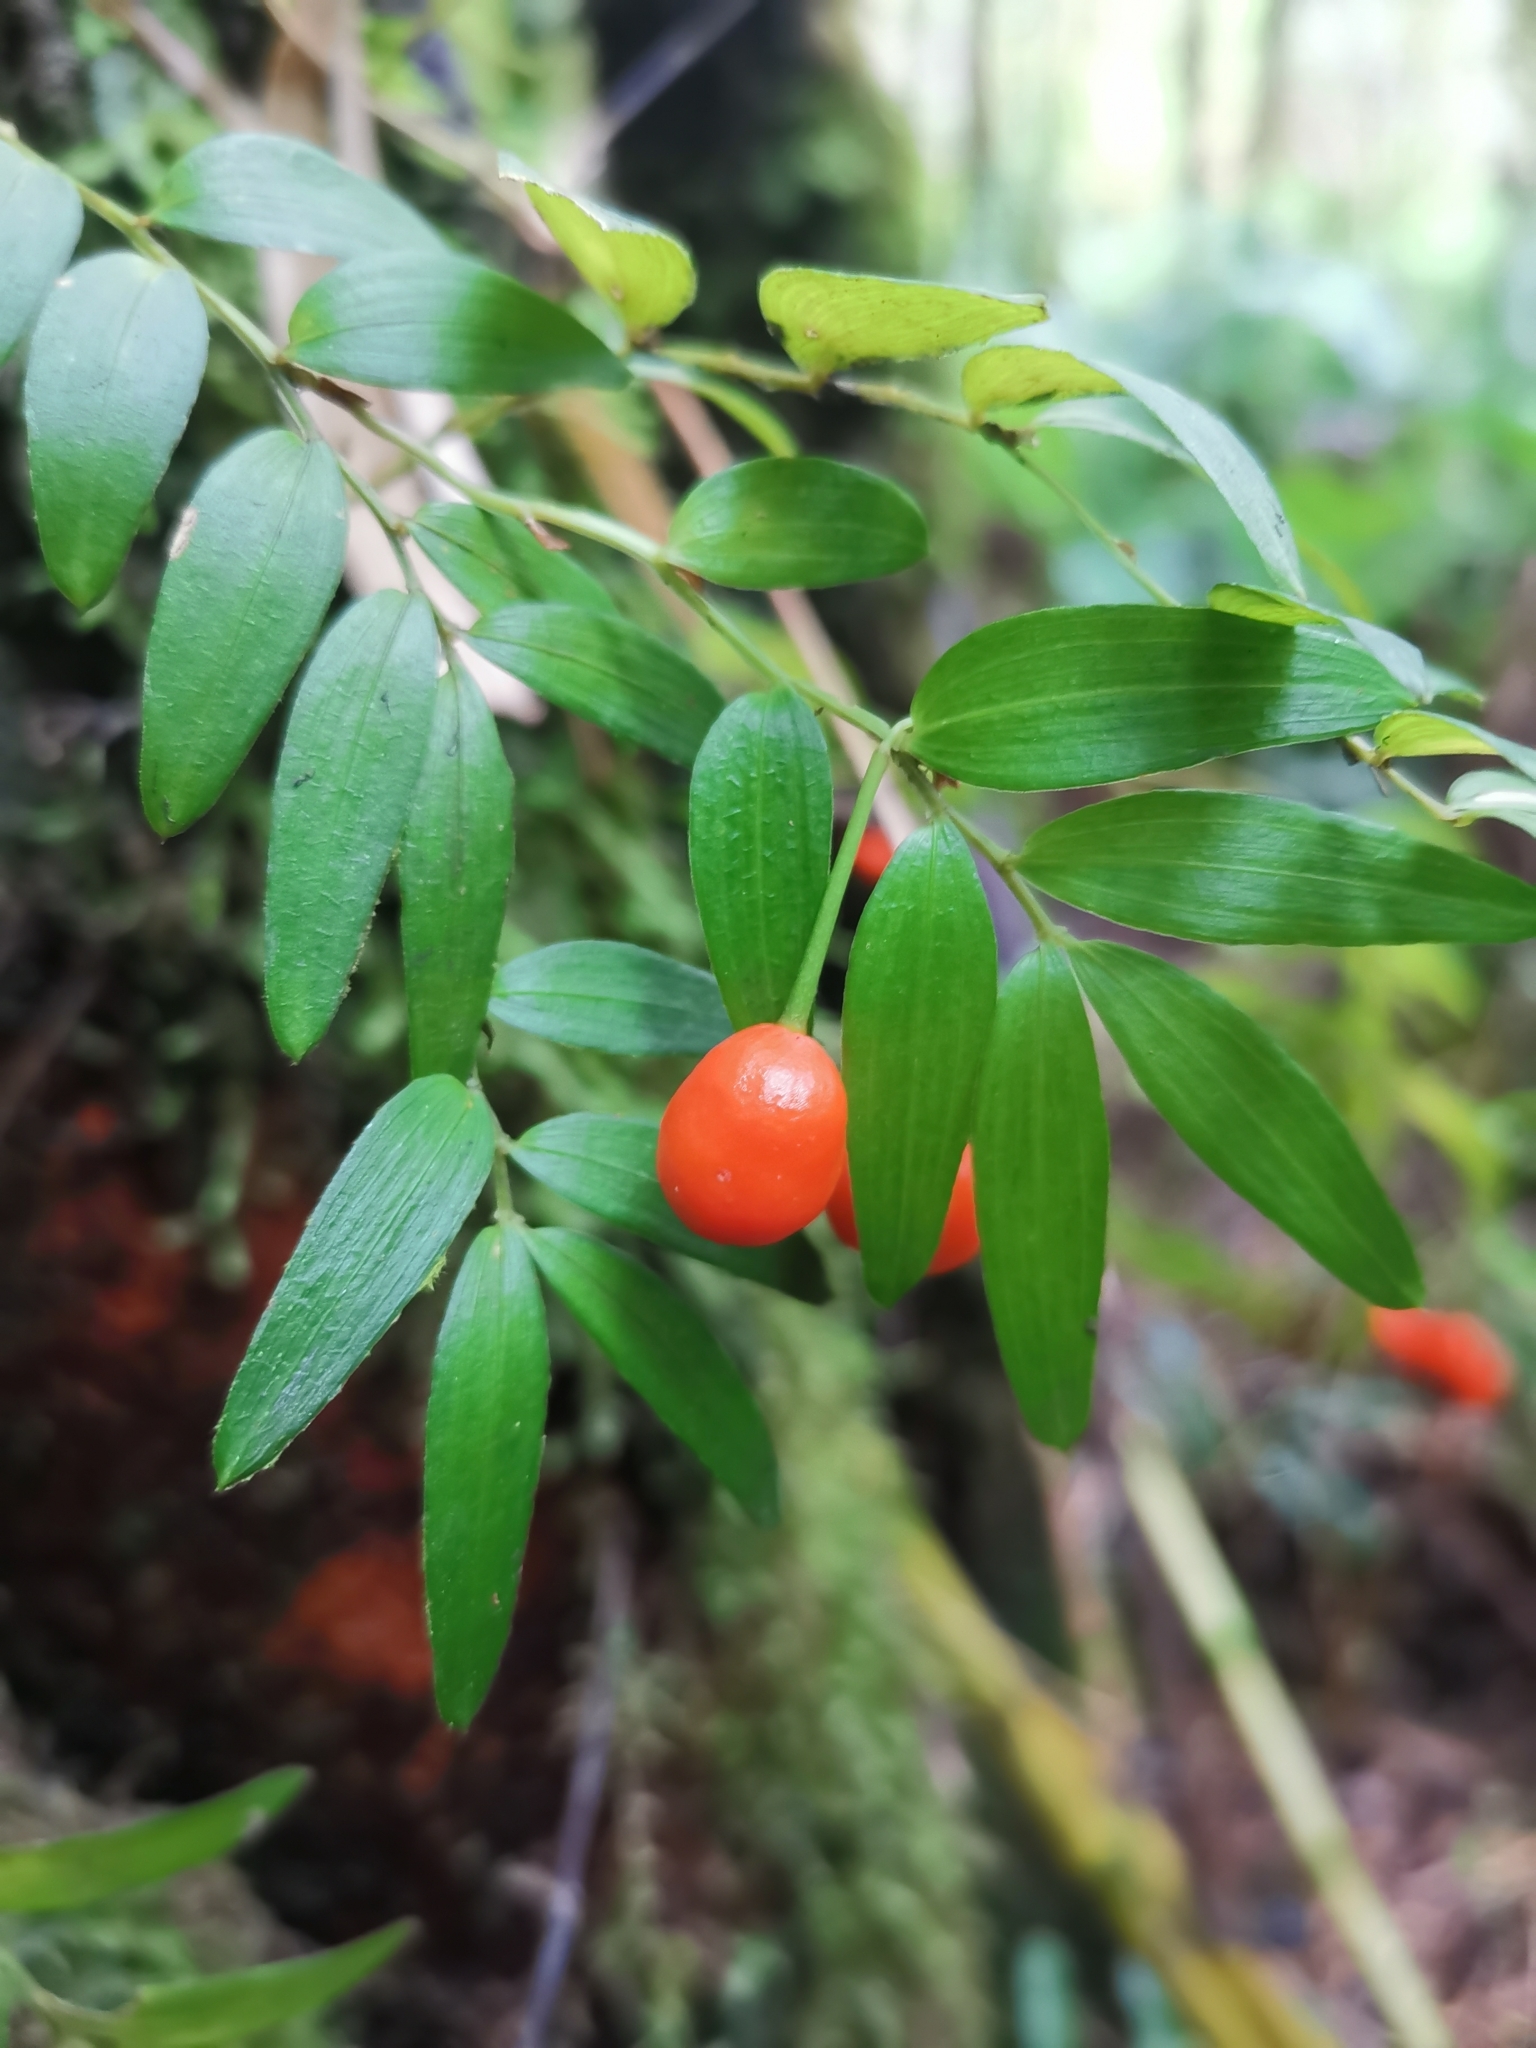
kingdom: Plantae
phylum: Tracheophyta
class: Liliopsida
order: Liliales
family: Alstroemeriaceae
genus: Luzuriaga
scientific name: Luzuriaga radicans
